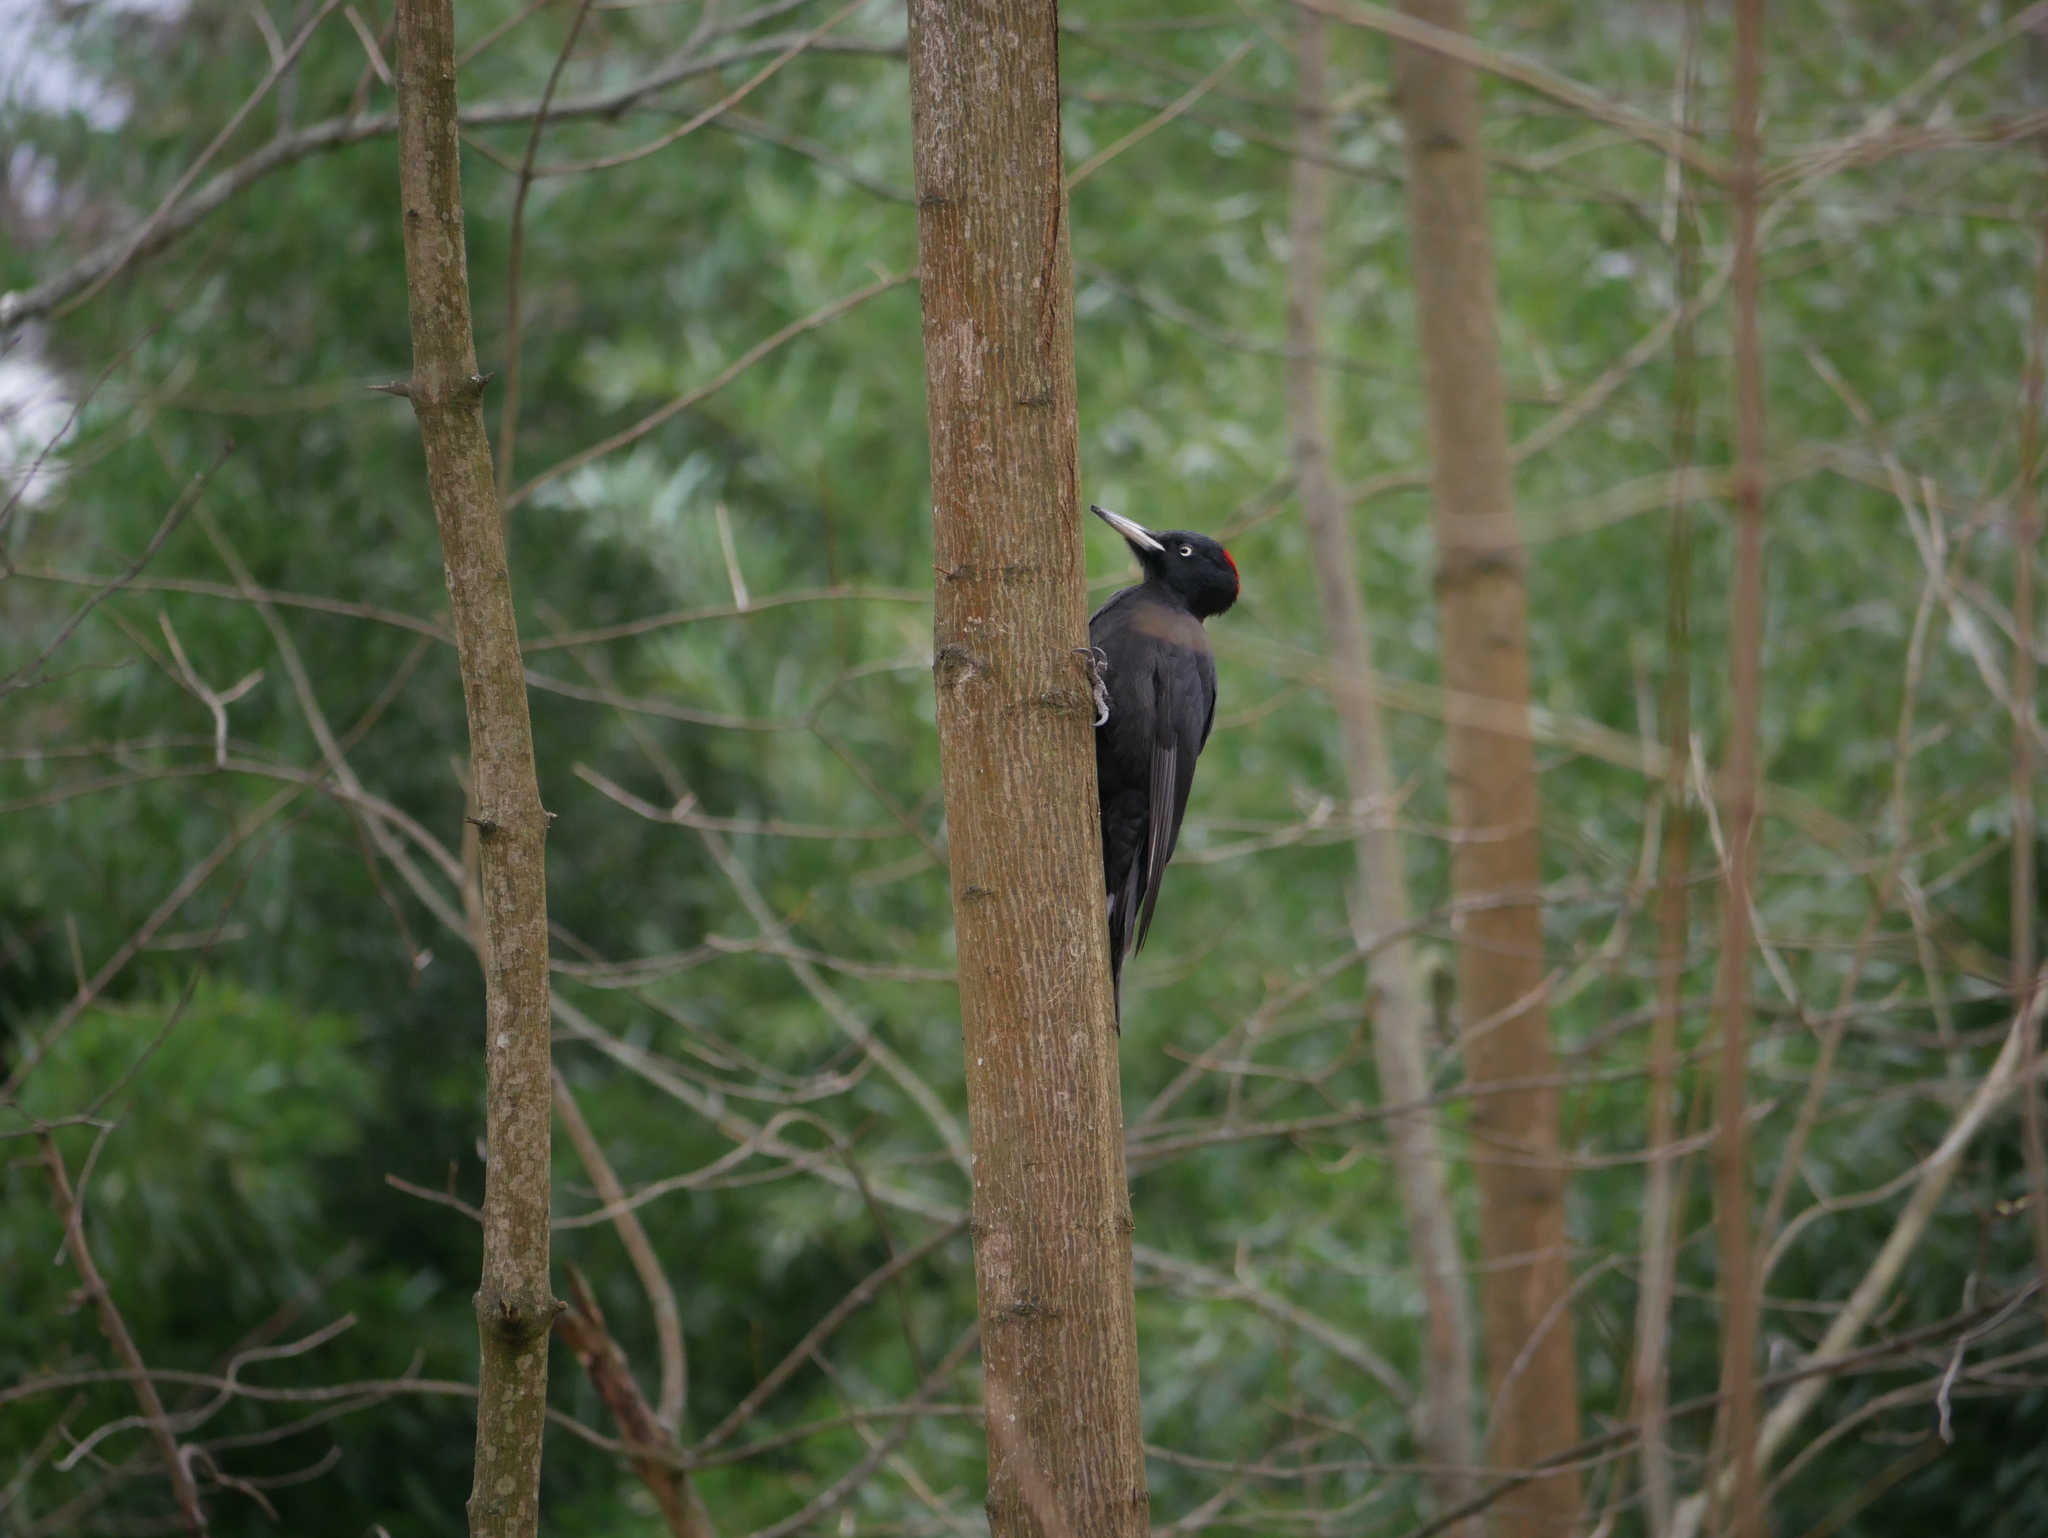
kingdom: Animalia
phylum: Chordata
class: Aves
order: Piciformes
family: Picidae
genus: Dryocopus
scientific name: Dryocopus martius
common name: Black woodpecker
